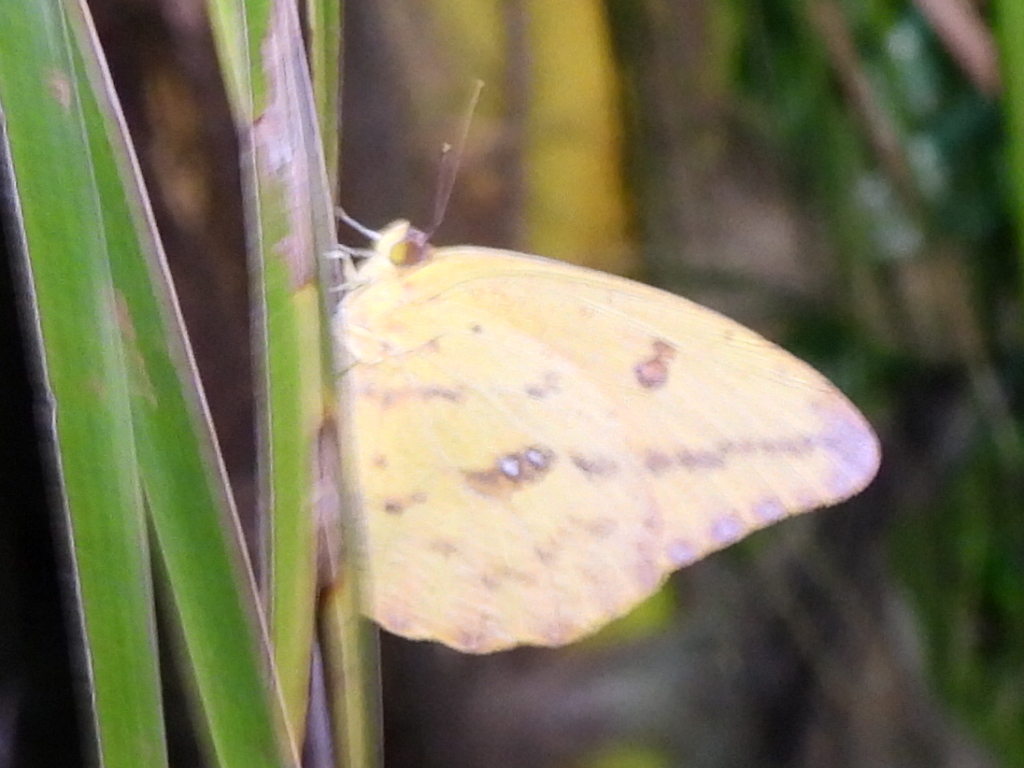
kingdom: Animalia
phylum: Arthropoda
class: Insecta
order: Lepidoptera
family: Pieridae
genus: Phoebis
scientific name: Phoebis agarithe
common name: Large orange sulphur
